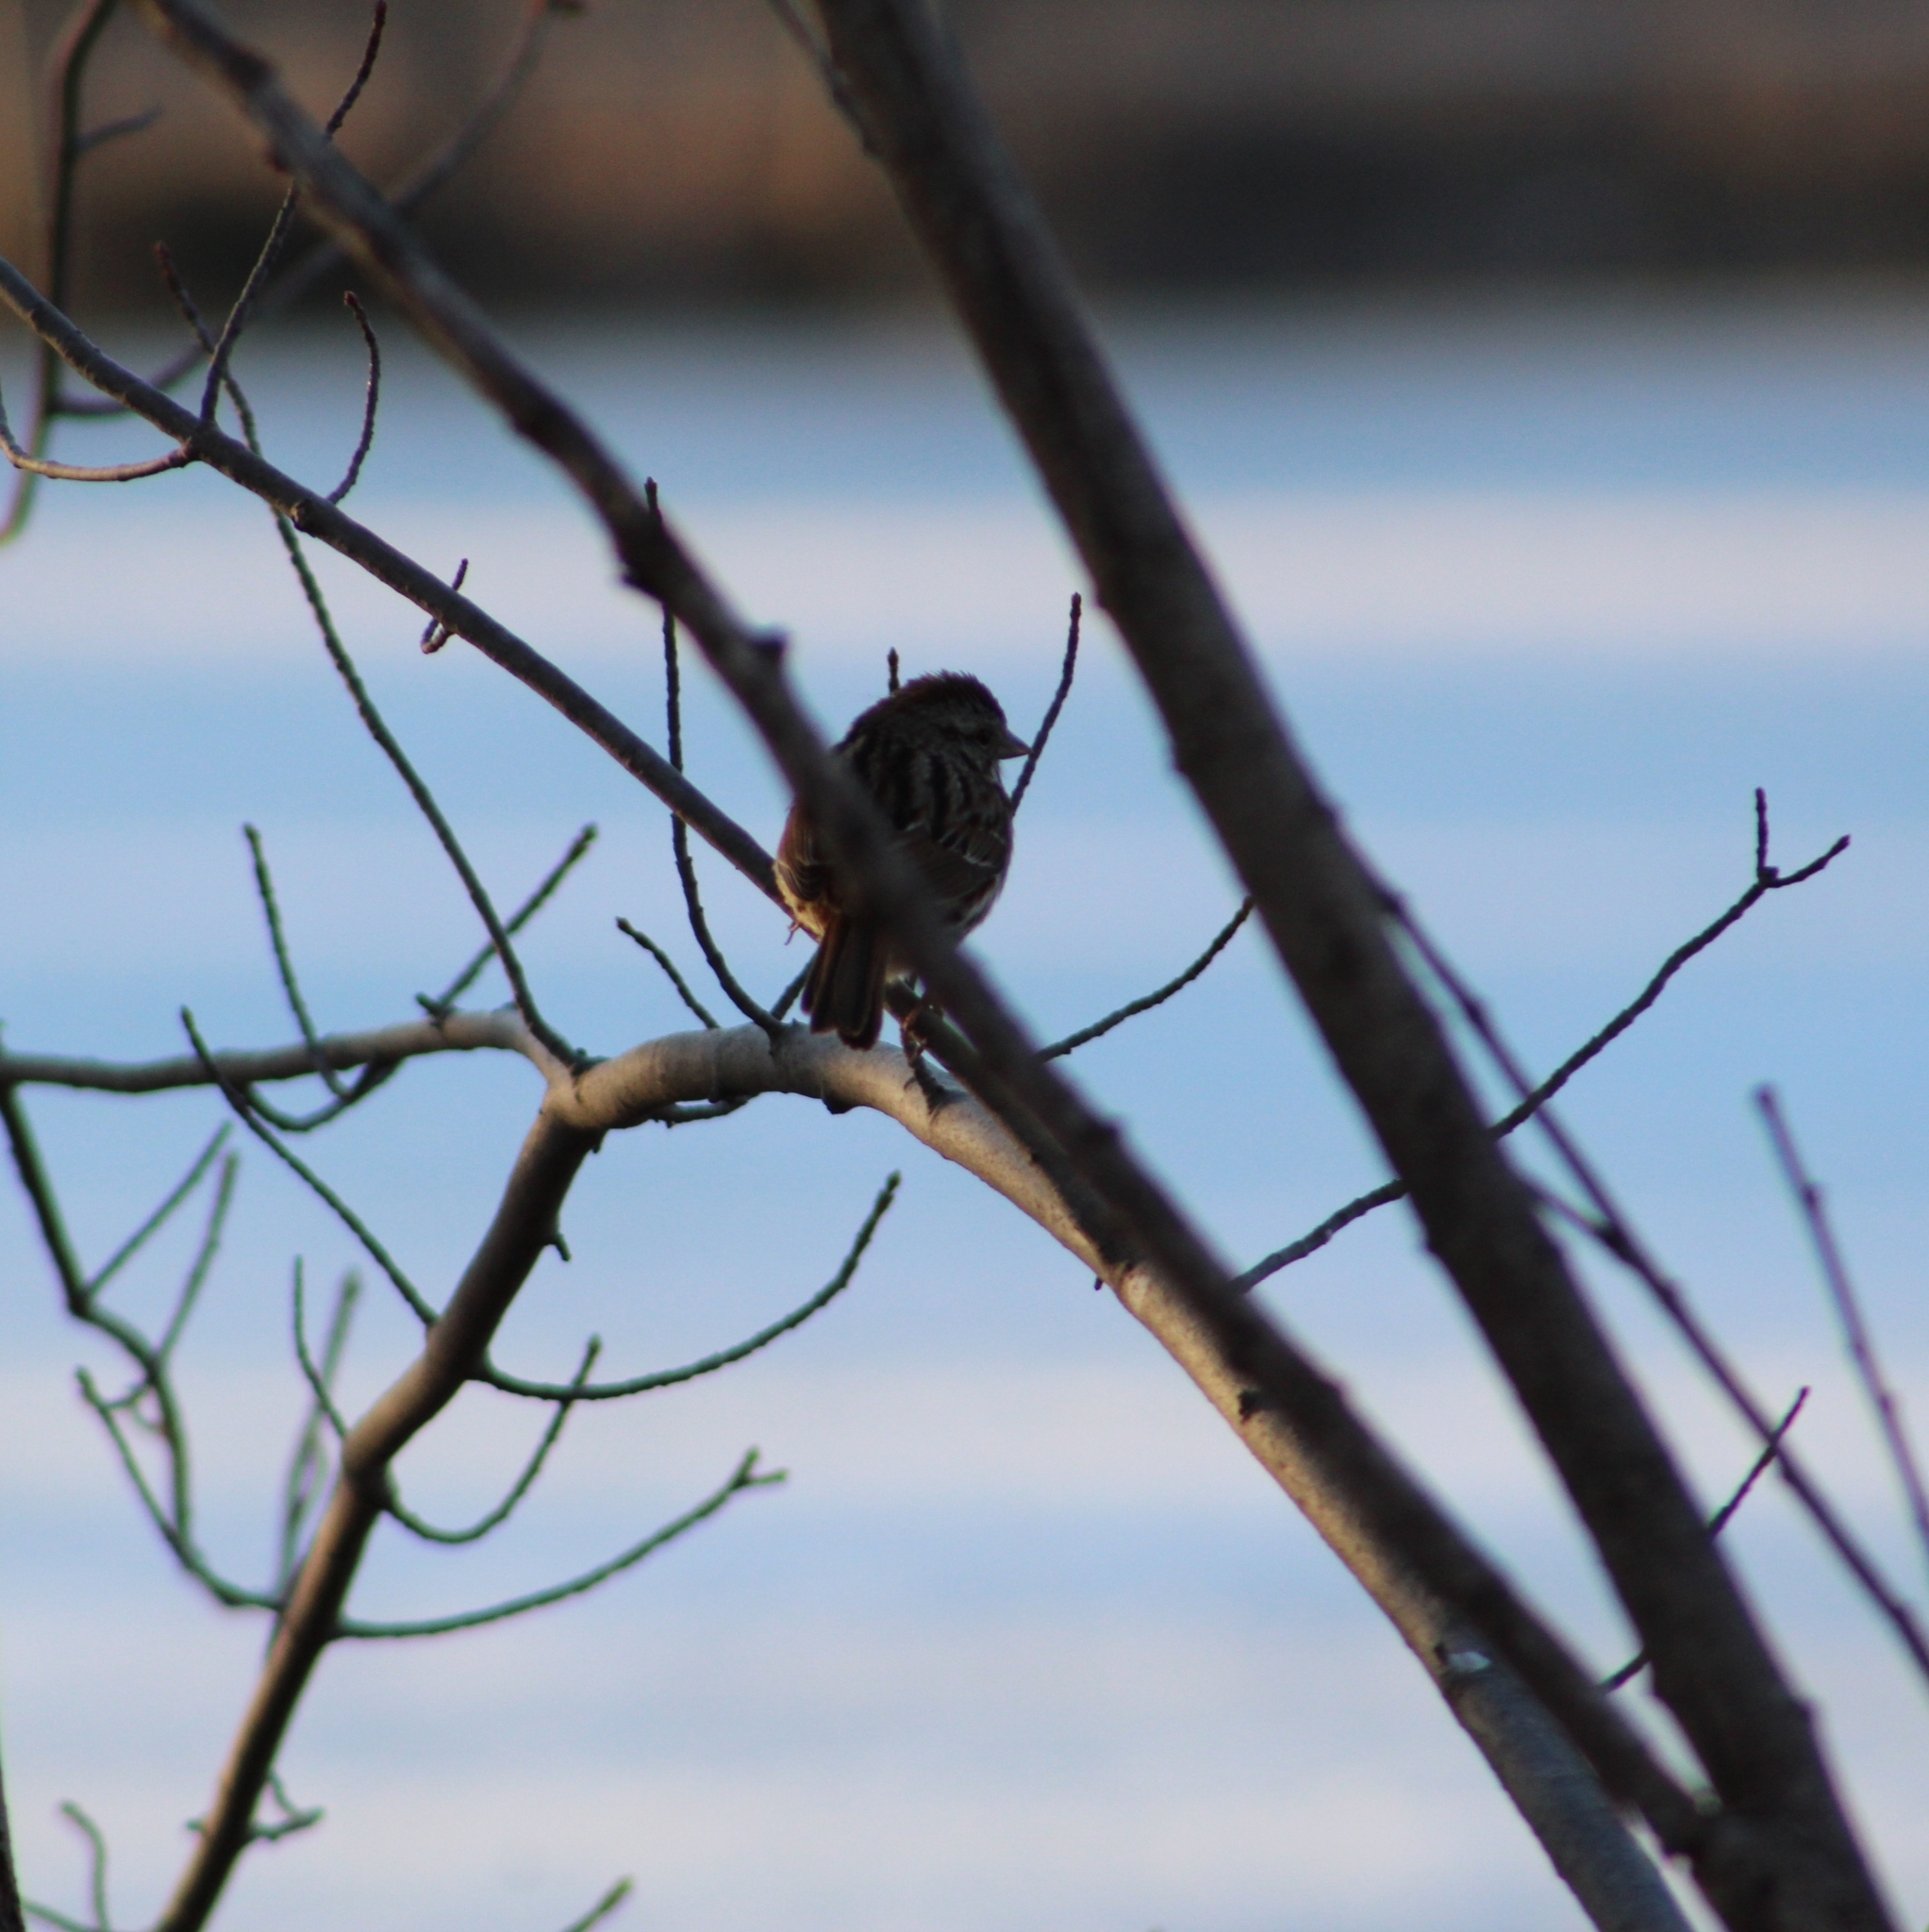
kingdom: Animalia
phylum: Chordata
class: Aves
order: Passeriformes
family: Passerellidae
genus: Melospiza
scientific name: Melospiza melodia
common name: Song sparrow
